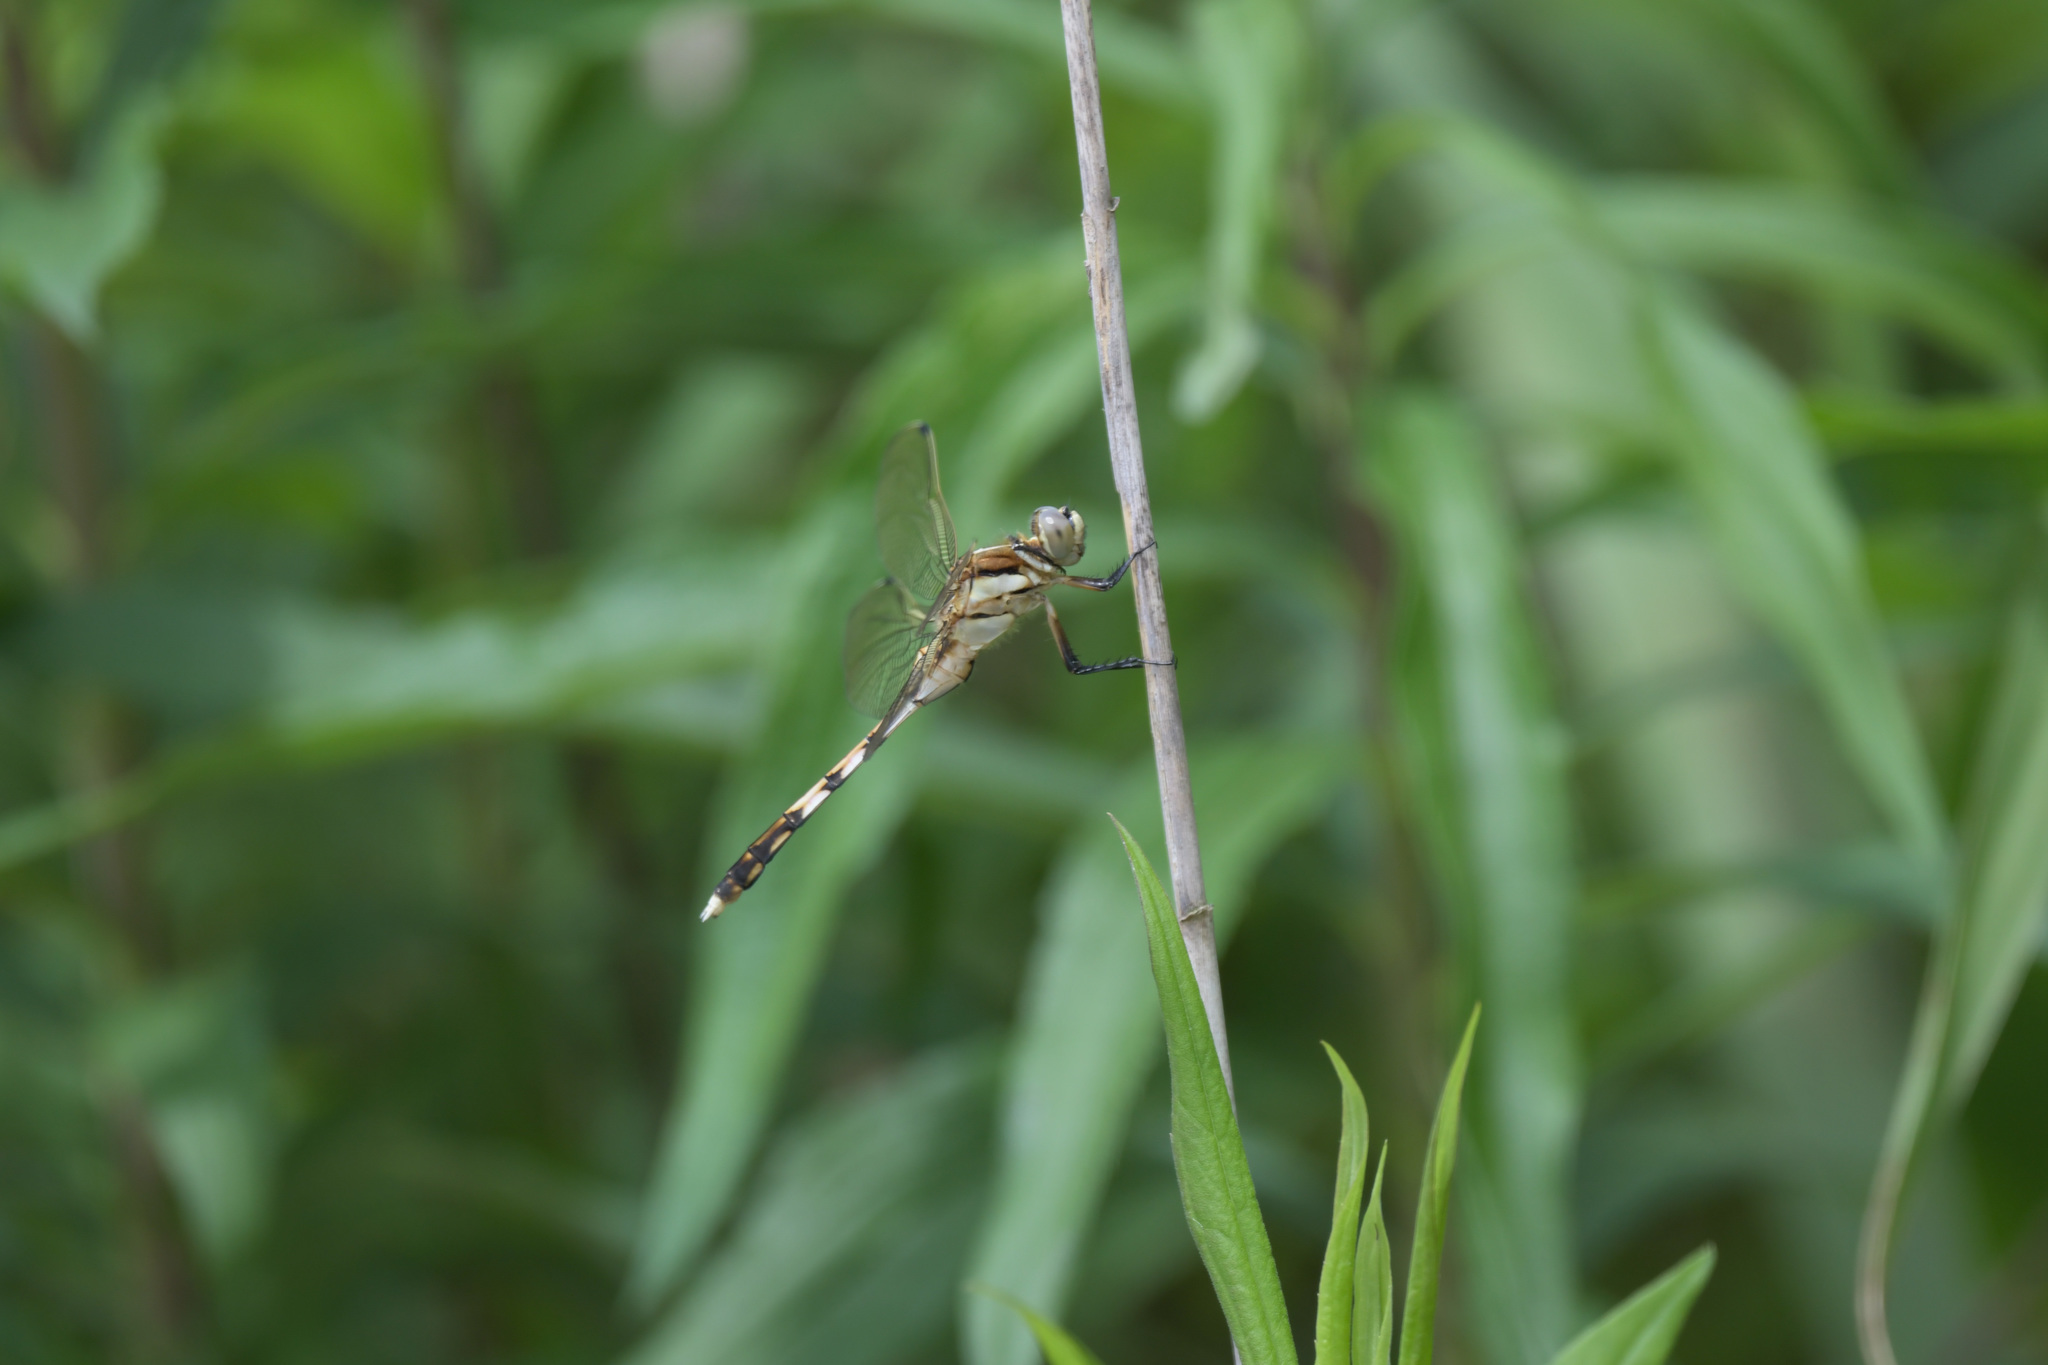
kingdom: Animalia
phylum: Arthropoda
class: Insecta
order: Odonata
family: Libellulidae
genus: Orthetrum
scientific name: Orthetrum albistylum
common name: White-tailed skimmer
